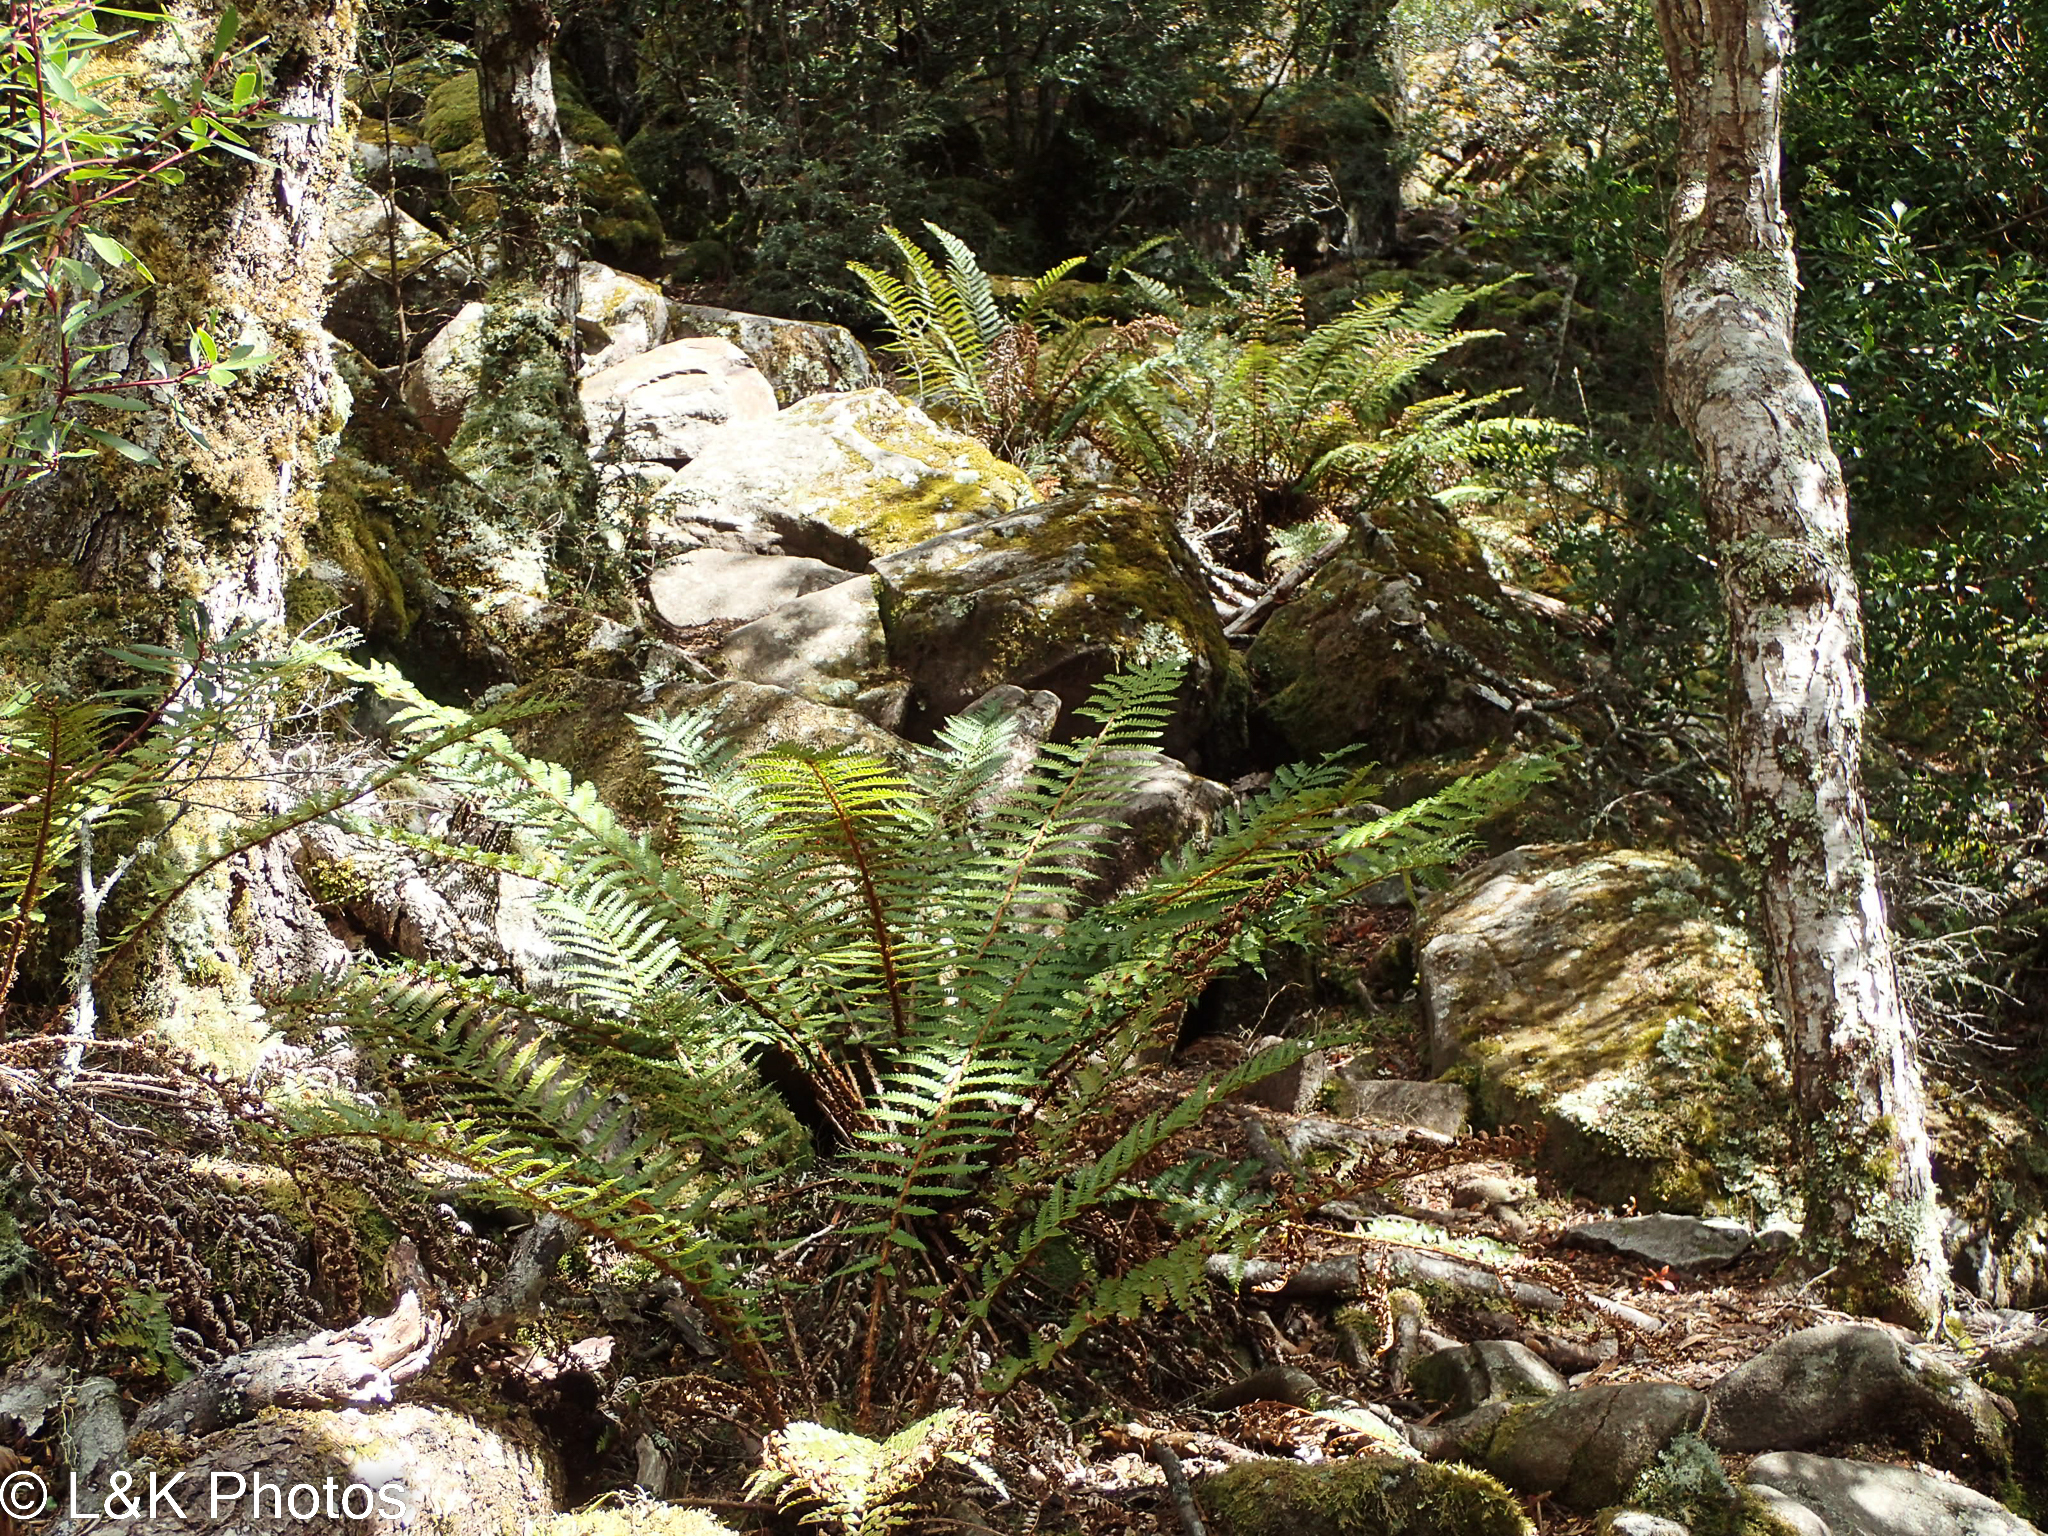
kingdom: Plantae
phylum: Tracheophyta
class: Polypodiopsida
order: Polypodiales
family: Dryopteridaceae
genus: Polystichum
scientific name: Polystichum proliferum
